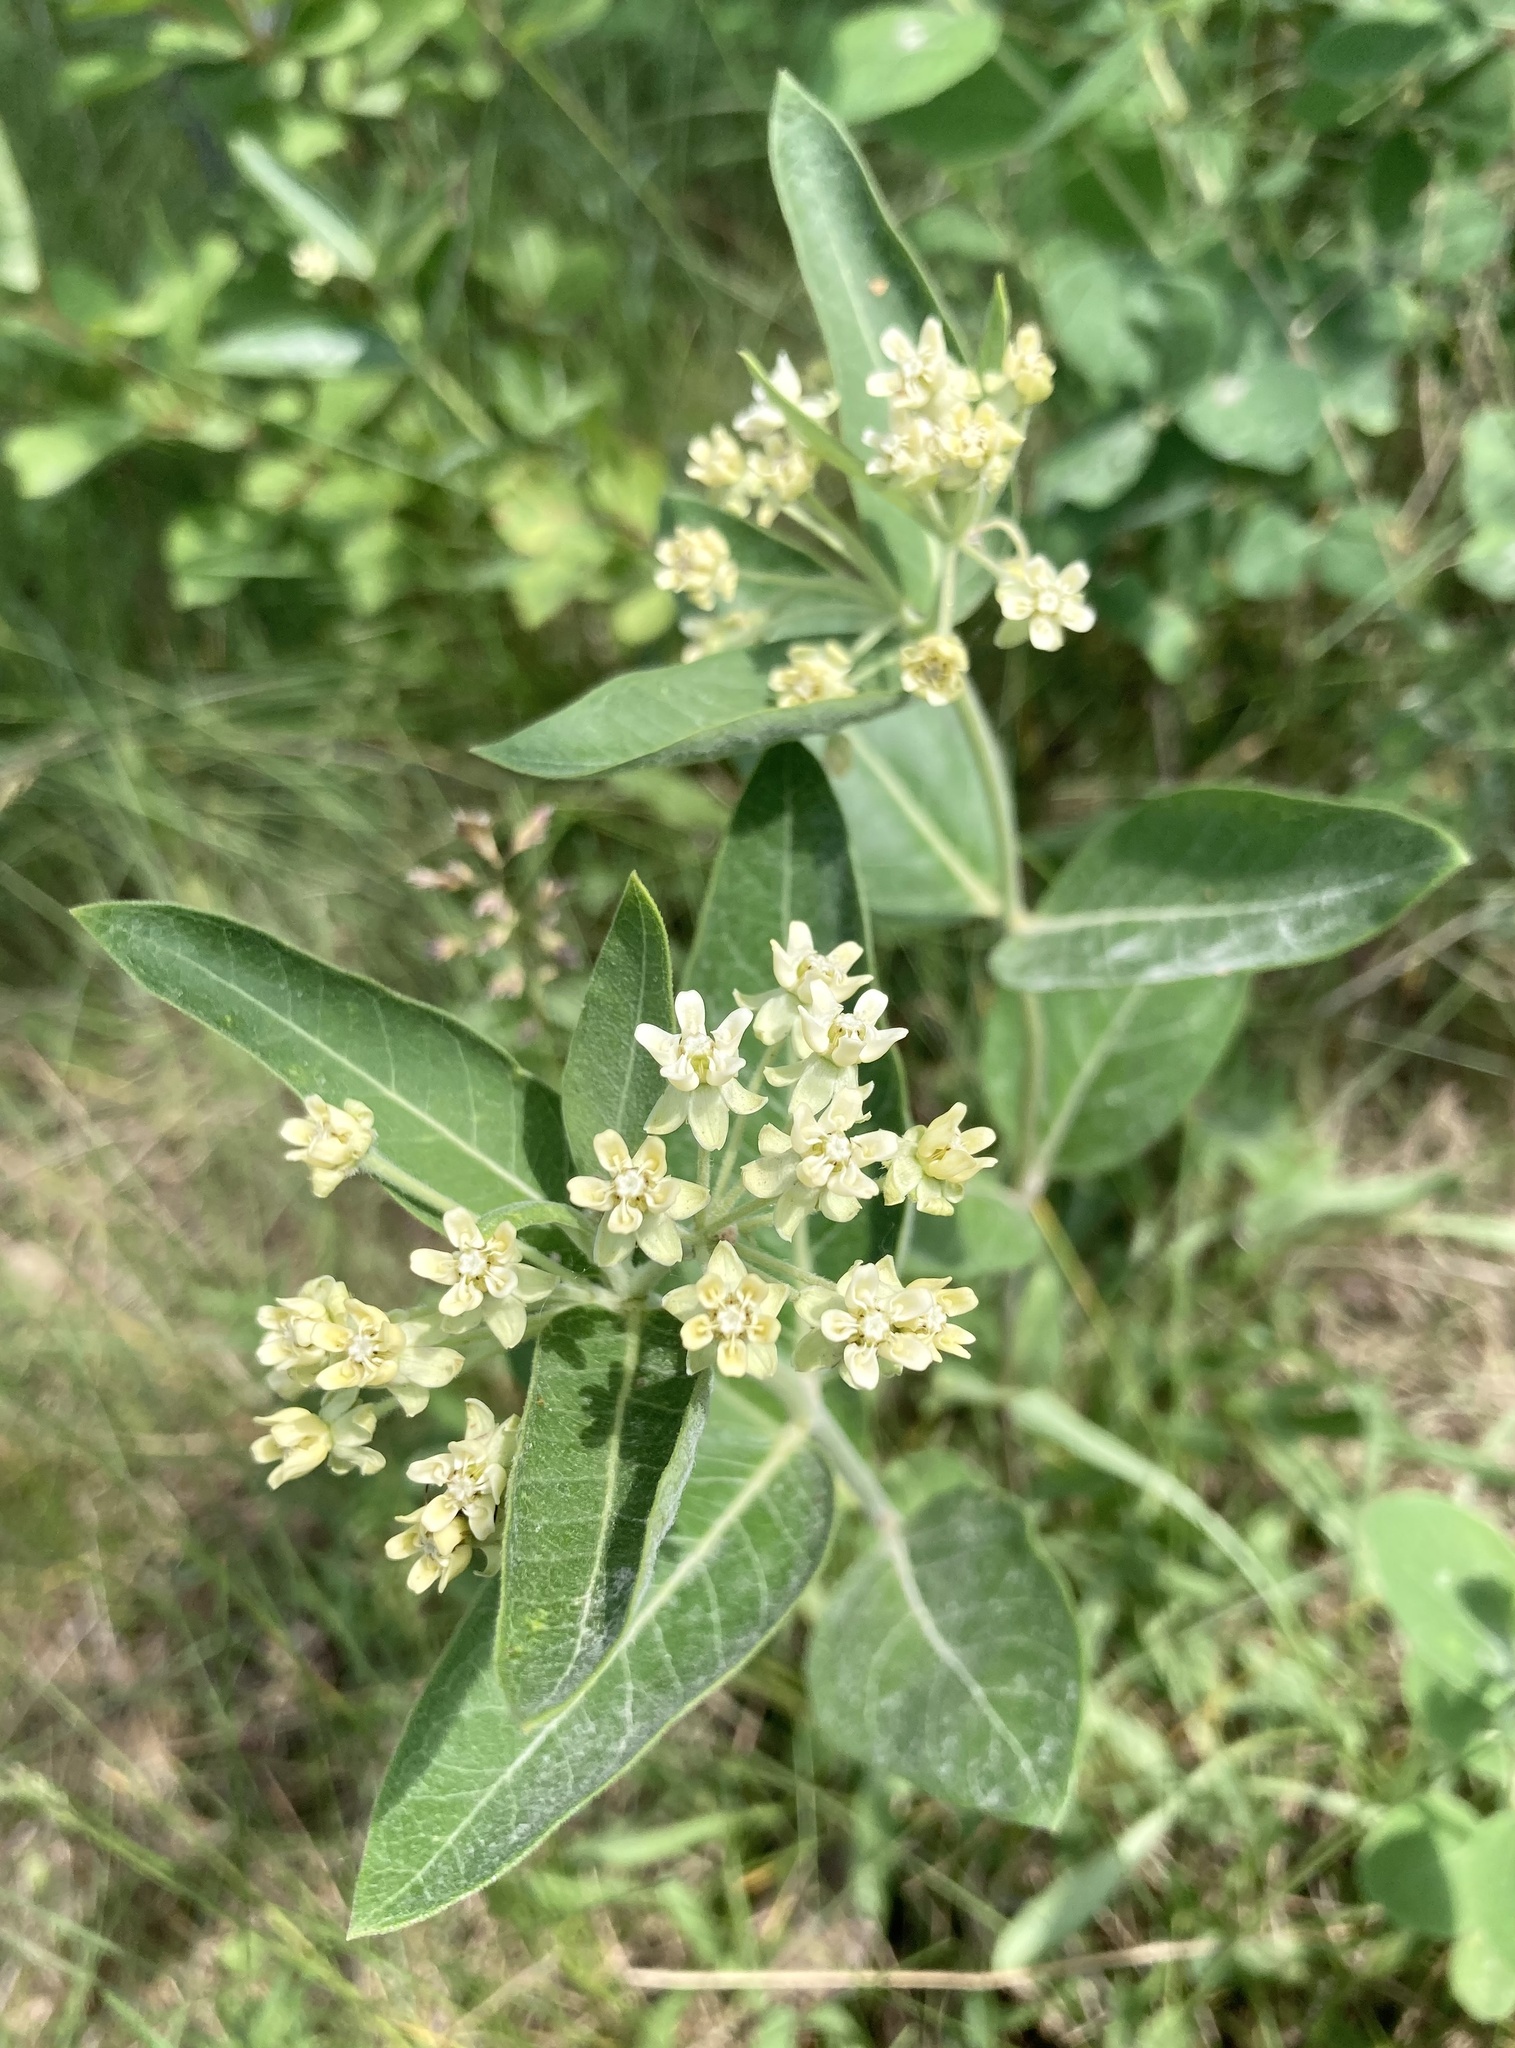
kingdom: Plantae
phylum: Tracheophyta
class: Magnoliopsida
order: Gentianales
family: Apocynaceae
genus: Asclepias
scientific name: Asclepias ovalifolia
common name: Dwarf milkweed
